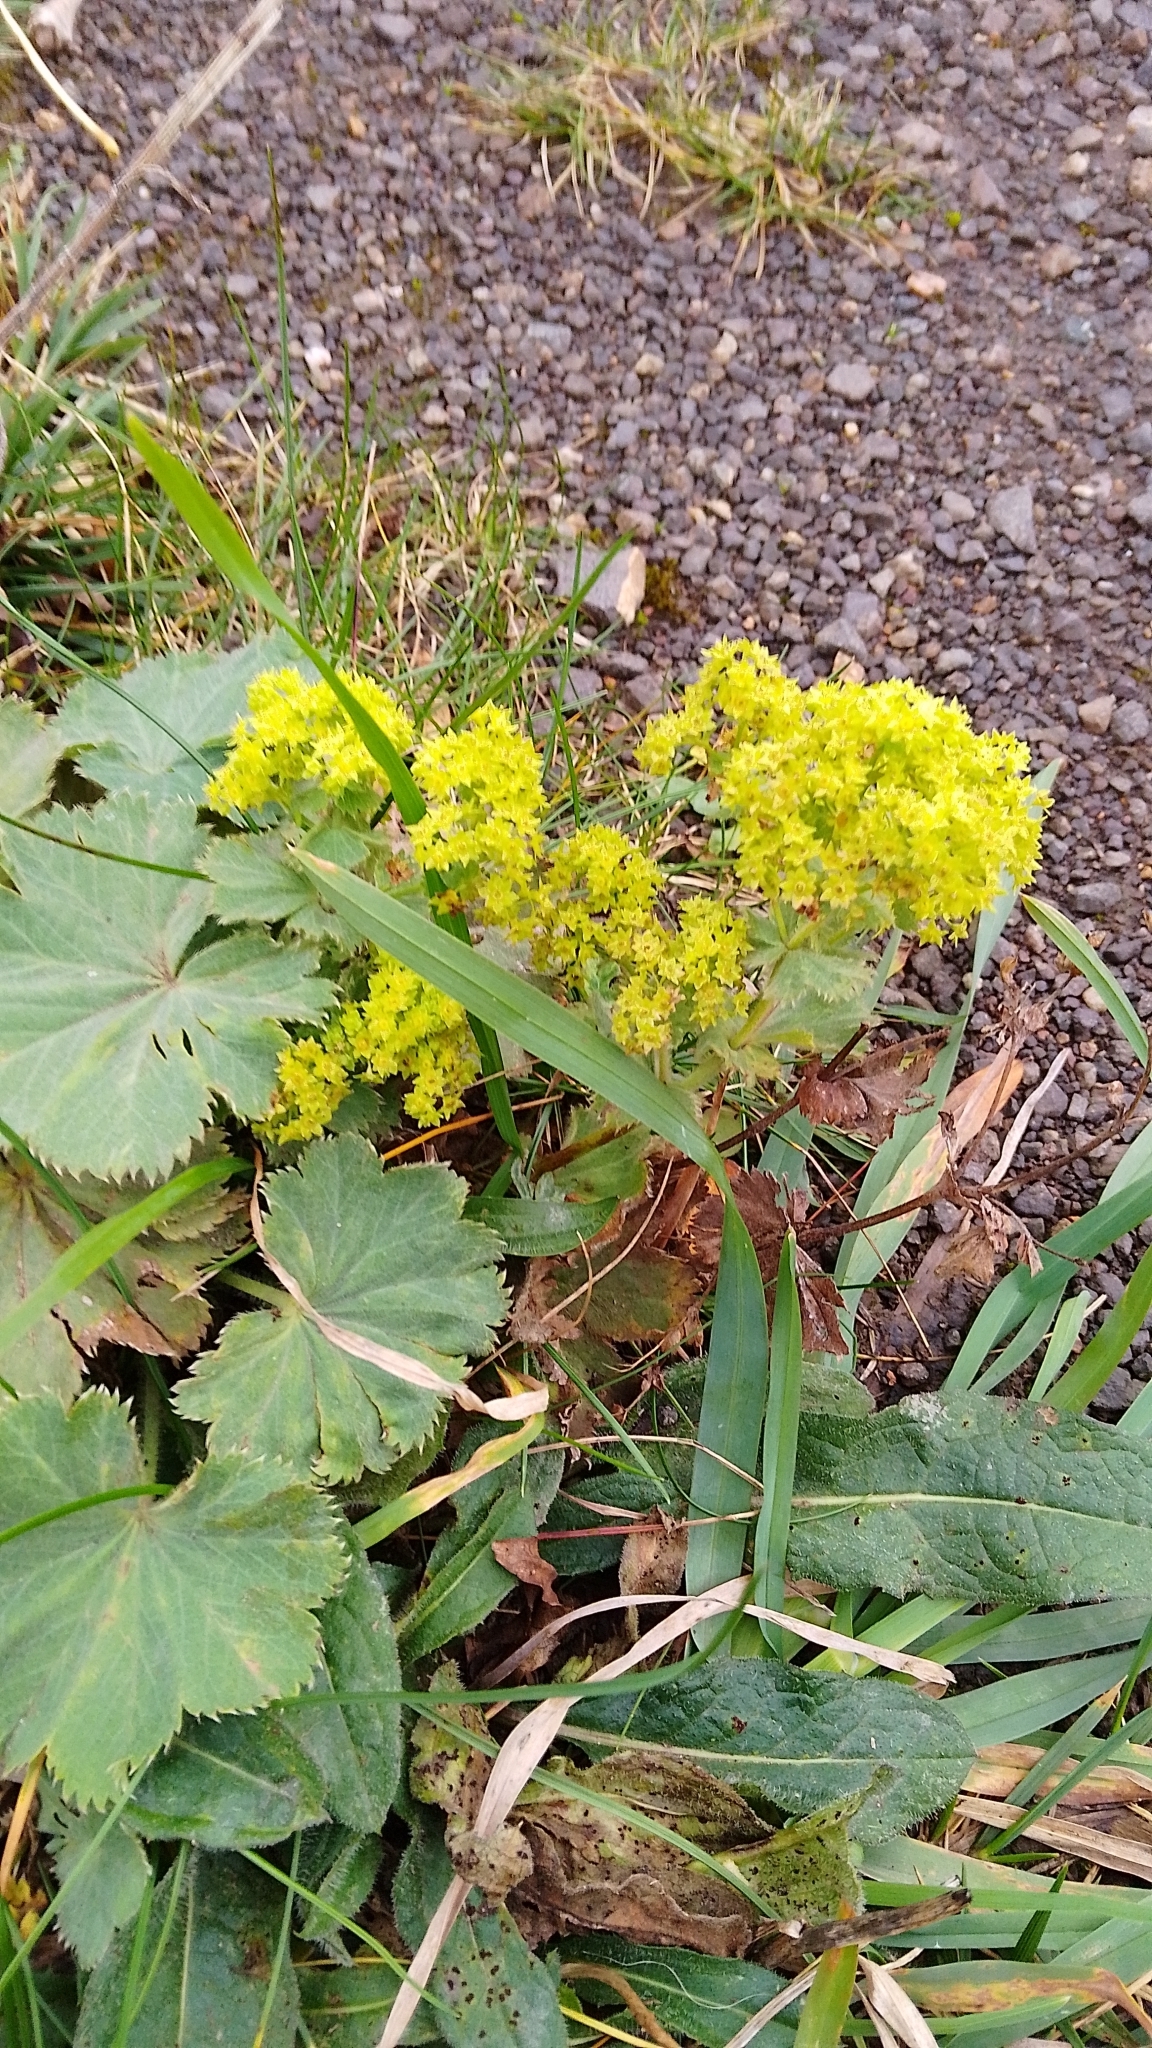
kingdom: Plantae
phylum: Tracheophyta
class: Magnoliopsida
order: Rosales
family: Rosaceae
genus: Alchemilla
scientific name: Alchemilla mollis
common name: Lady's-mantle
